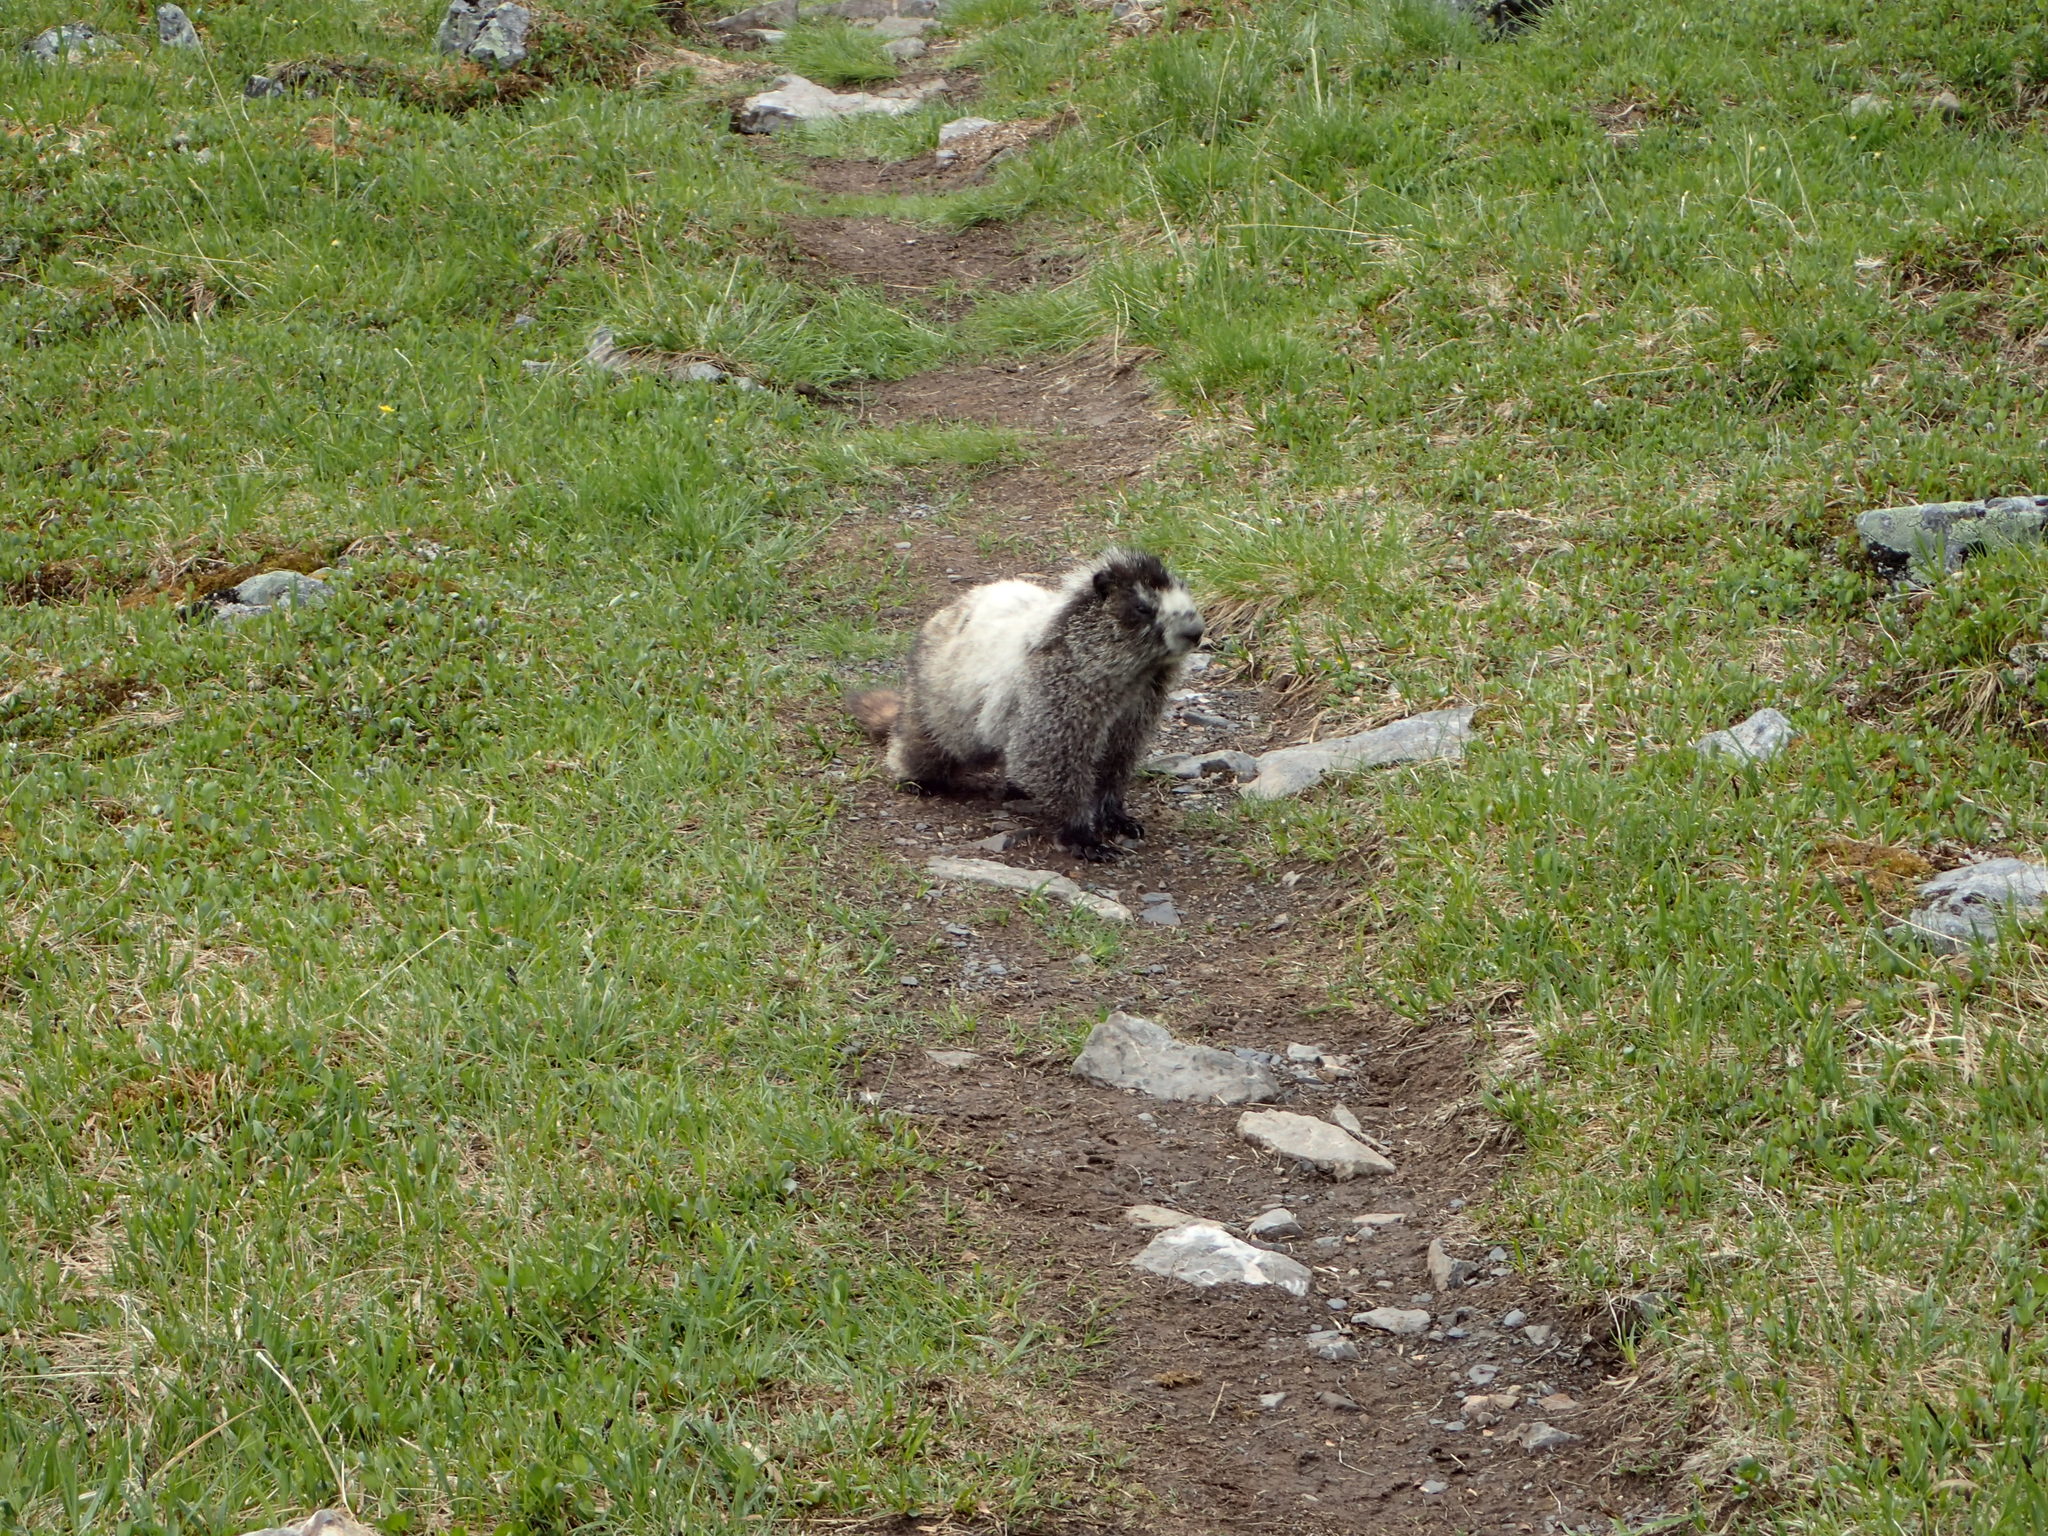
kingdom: Animalia
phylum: Chordata
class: Mammalia
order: Rodentia
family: Sciuridae
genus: Marmota
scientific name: Marmota caligata
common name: Hoary marmot
